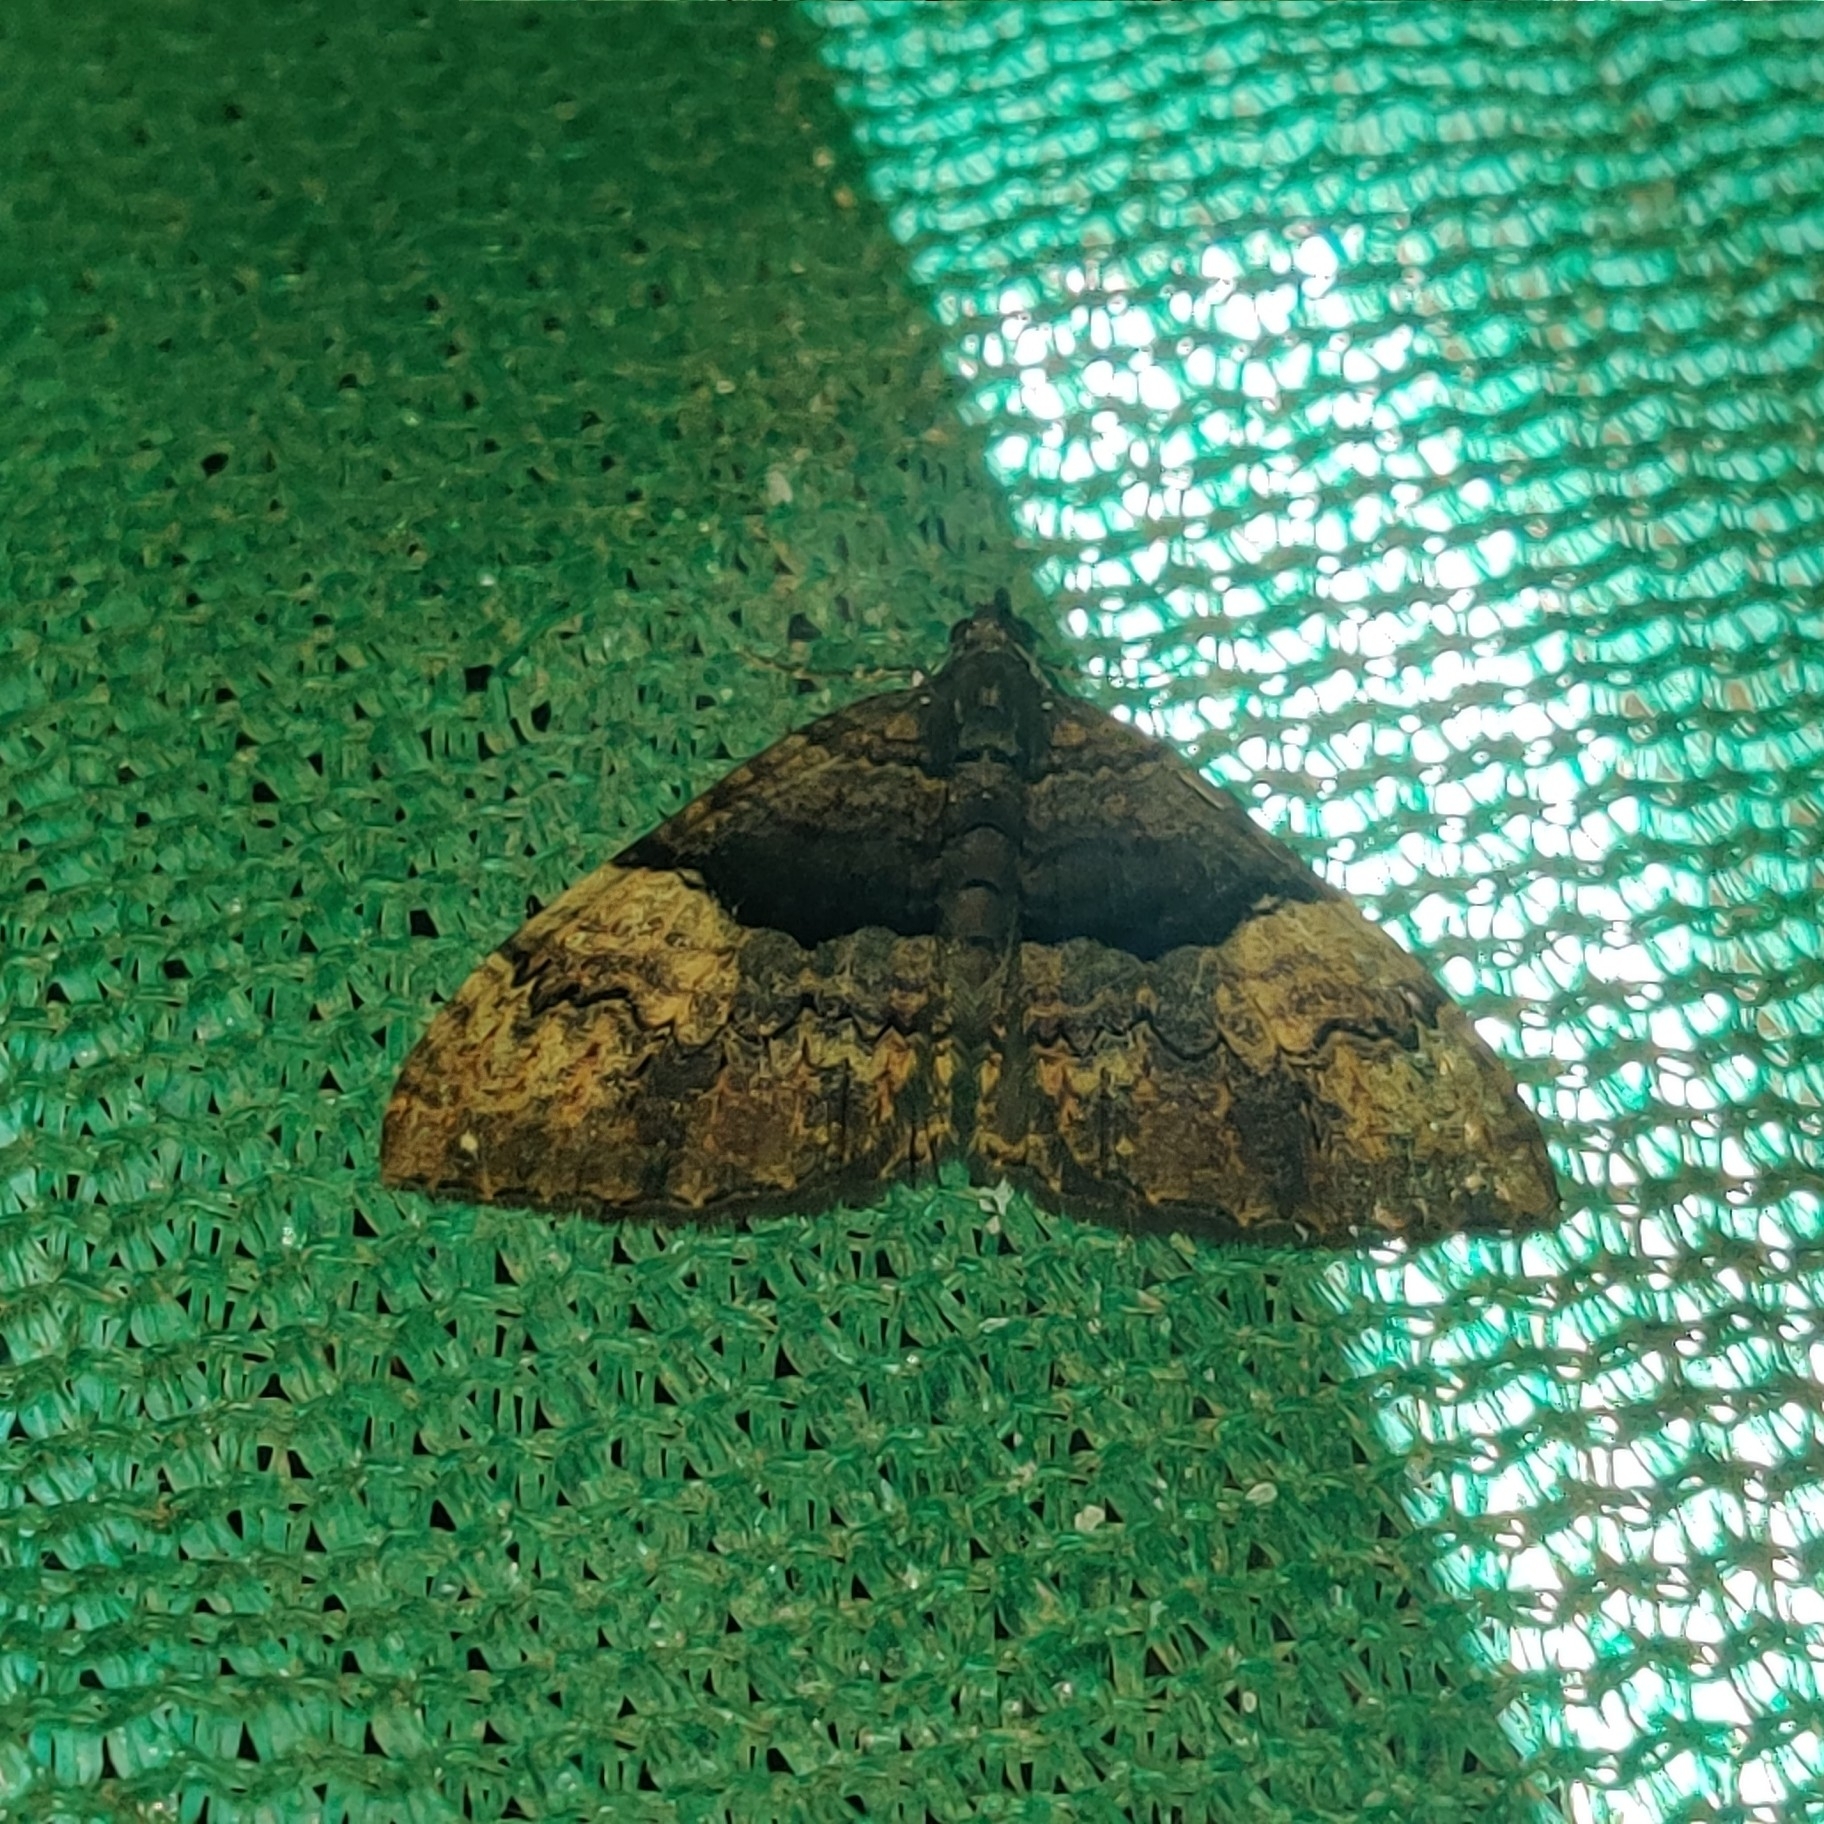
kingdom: Animalia
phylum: Arthropoda
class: Insecta
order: Lepidoptera
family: Geometridae
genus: Photoscotosia
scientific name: Photoscotosia miniosata
